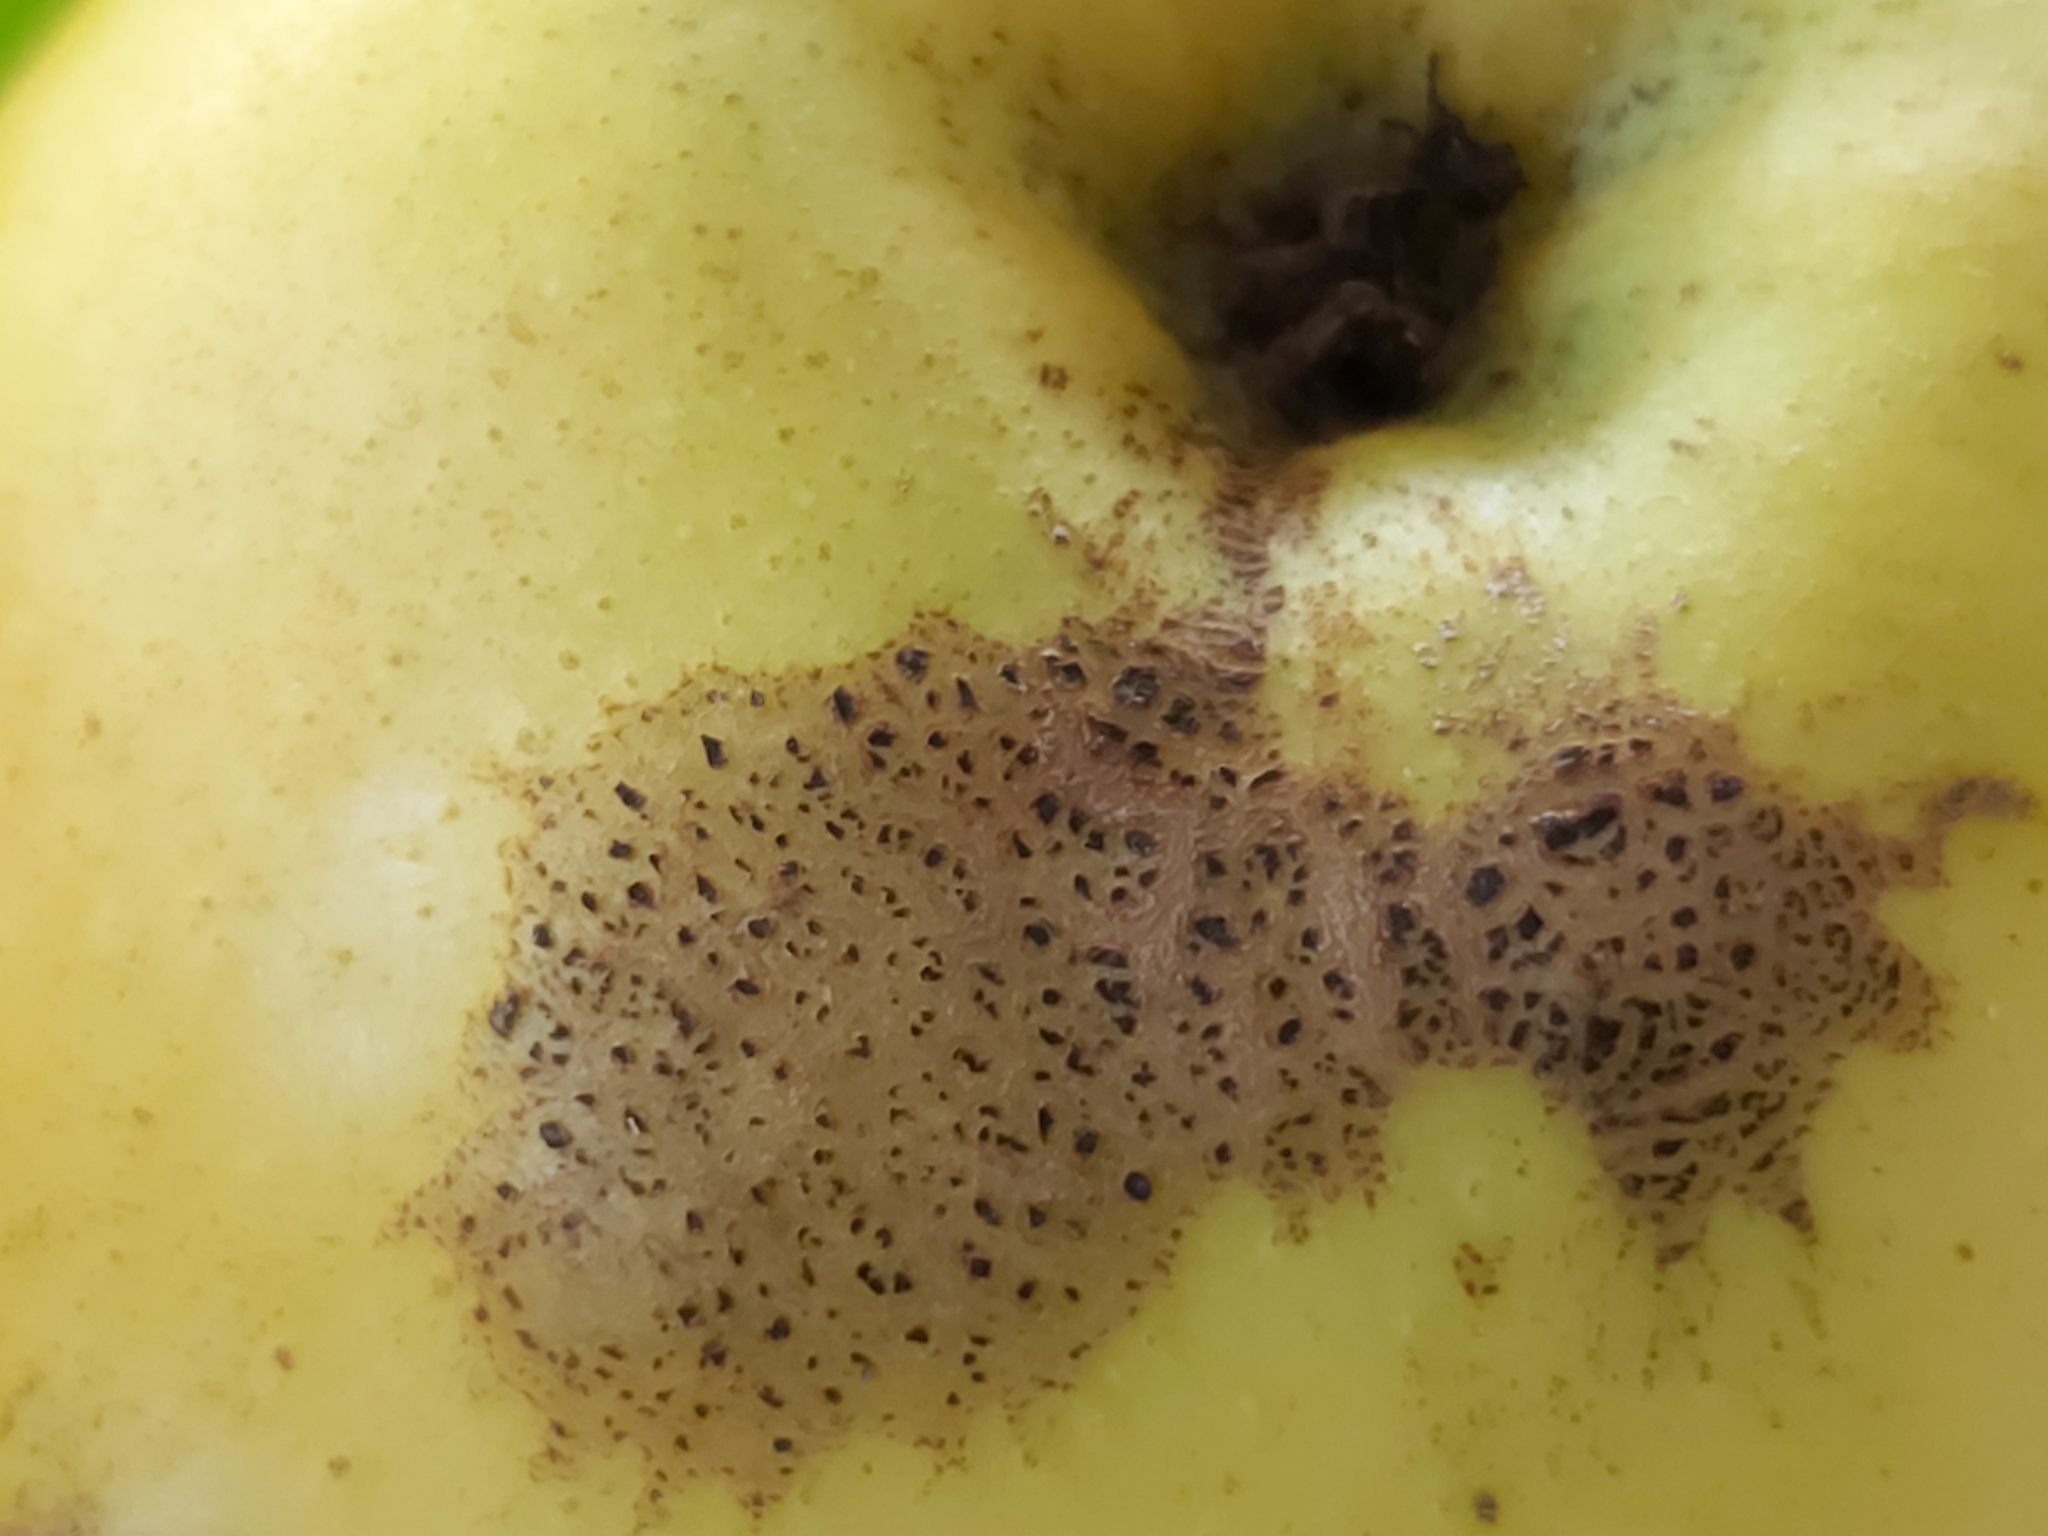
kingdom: Fungi
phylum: Ascomycota
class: Dothideomycetes
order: Venturiales
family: Venturiaceae
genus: Venturia
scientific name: Venturia inaequalis
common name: Apple scab
